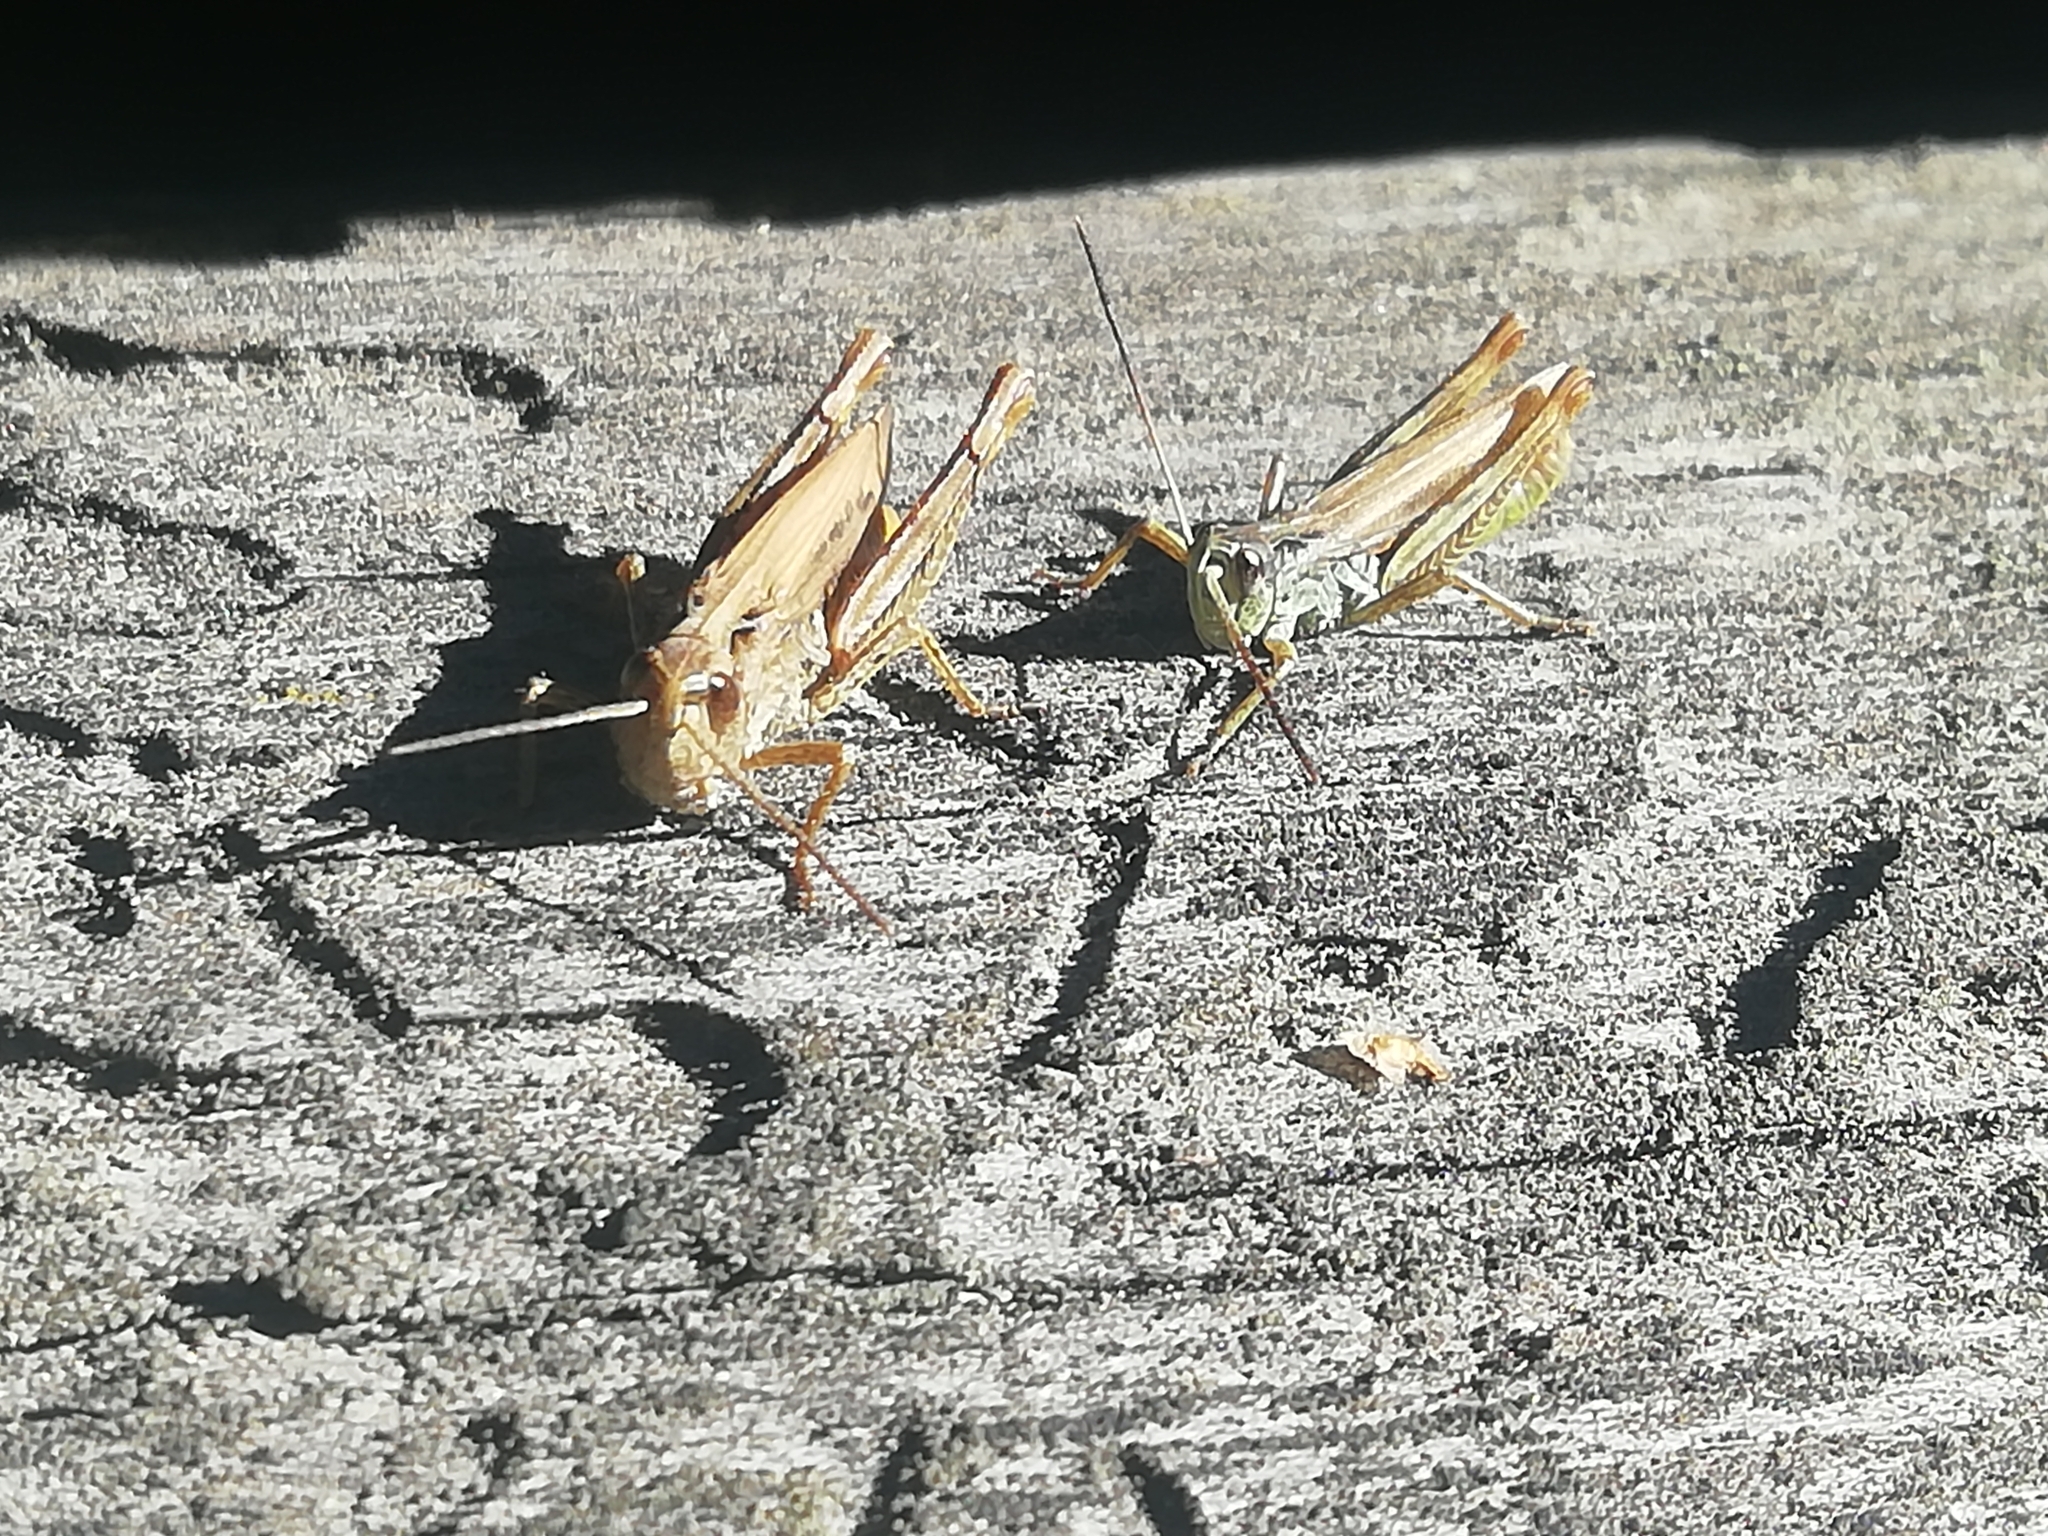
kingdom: Animalia
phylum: Arthropoda
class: Insecta
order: Orthoptera
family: Acrididae
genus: Chorthippus
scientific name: Chorthippus apricarius
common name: Upland field grasshopper
